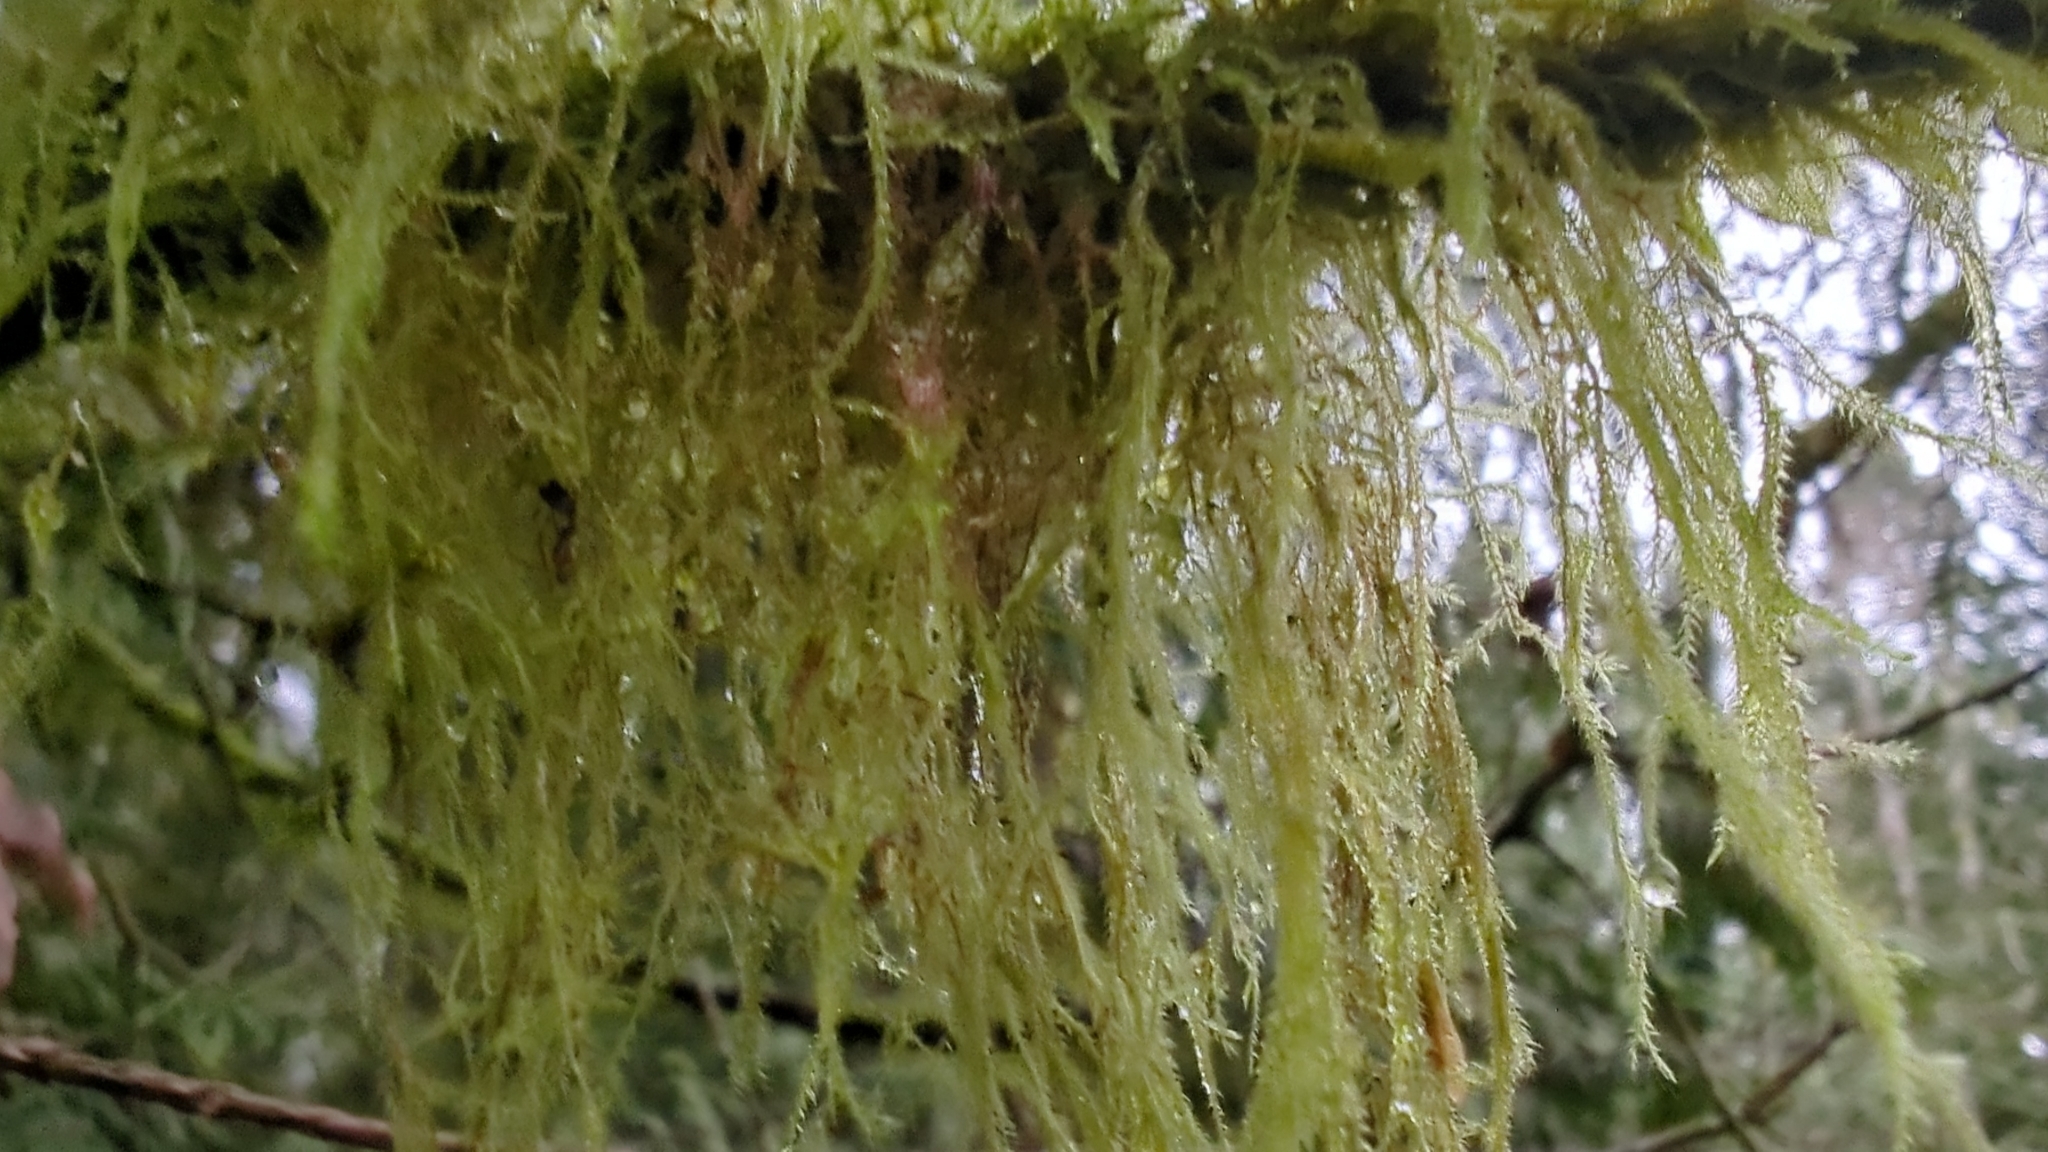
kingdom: Plantae
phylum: Bryophyta
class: Bryopsida
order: Hypnales
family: Lembophyllaceae
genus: Pseudisothecium
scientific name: Pseudisothecium stoloniferum
